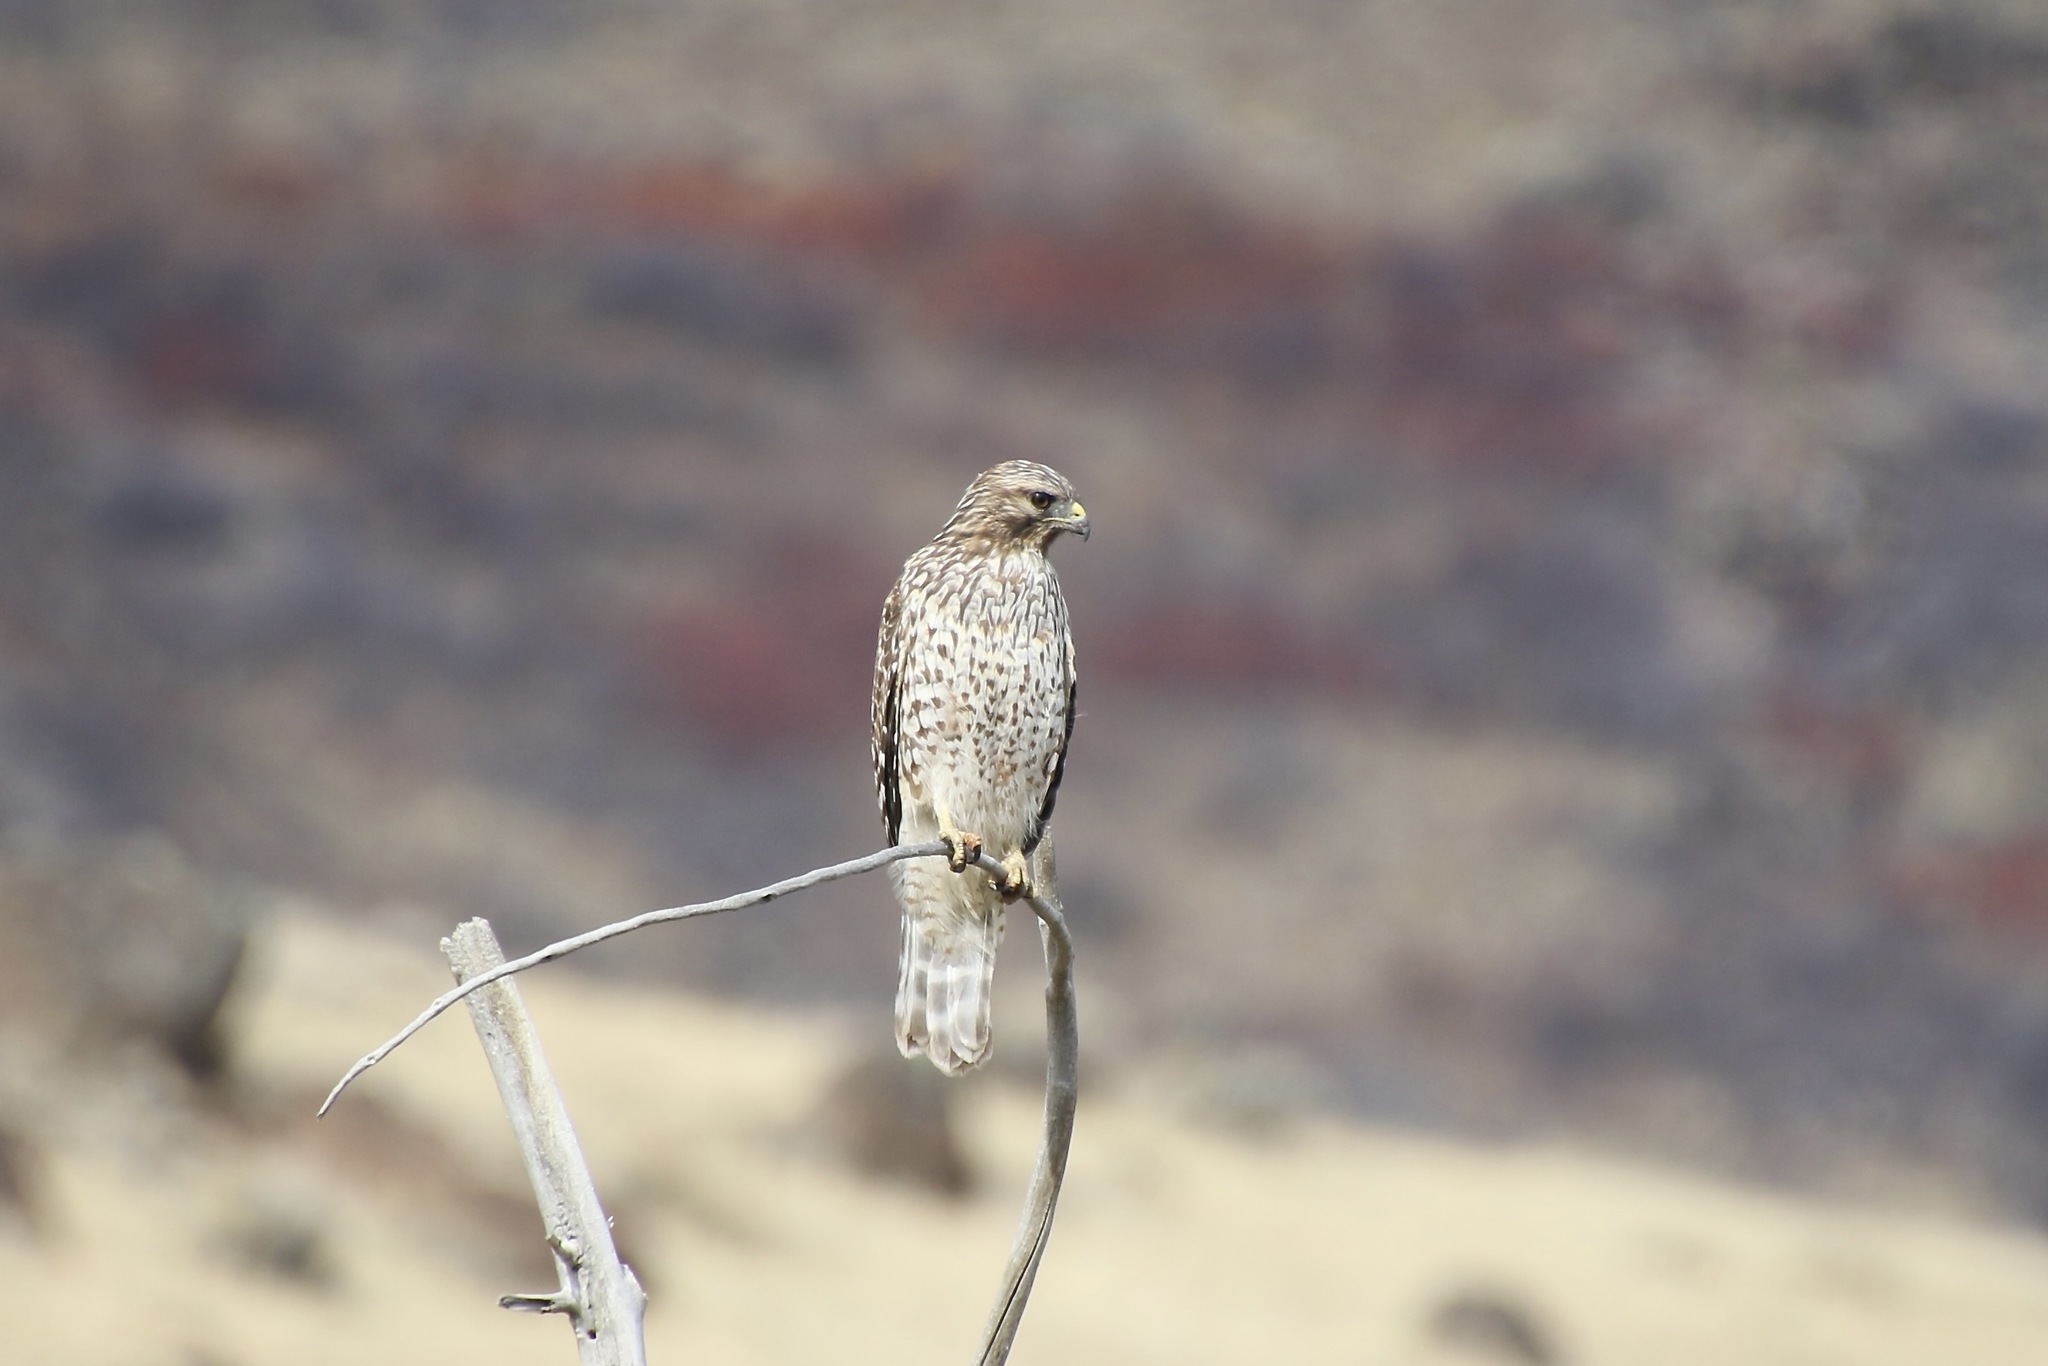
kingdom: Animalia
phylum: Chordata
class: Aves
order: Accipitriformes
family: Accipitridae
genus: Buteo
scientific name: Buteo lineatus
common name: Red-shouldered hawk
